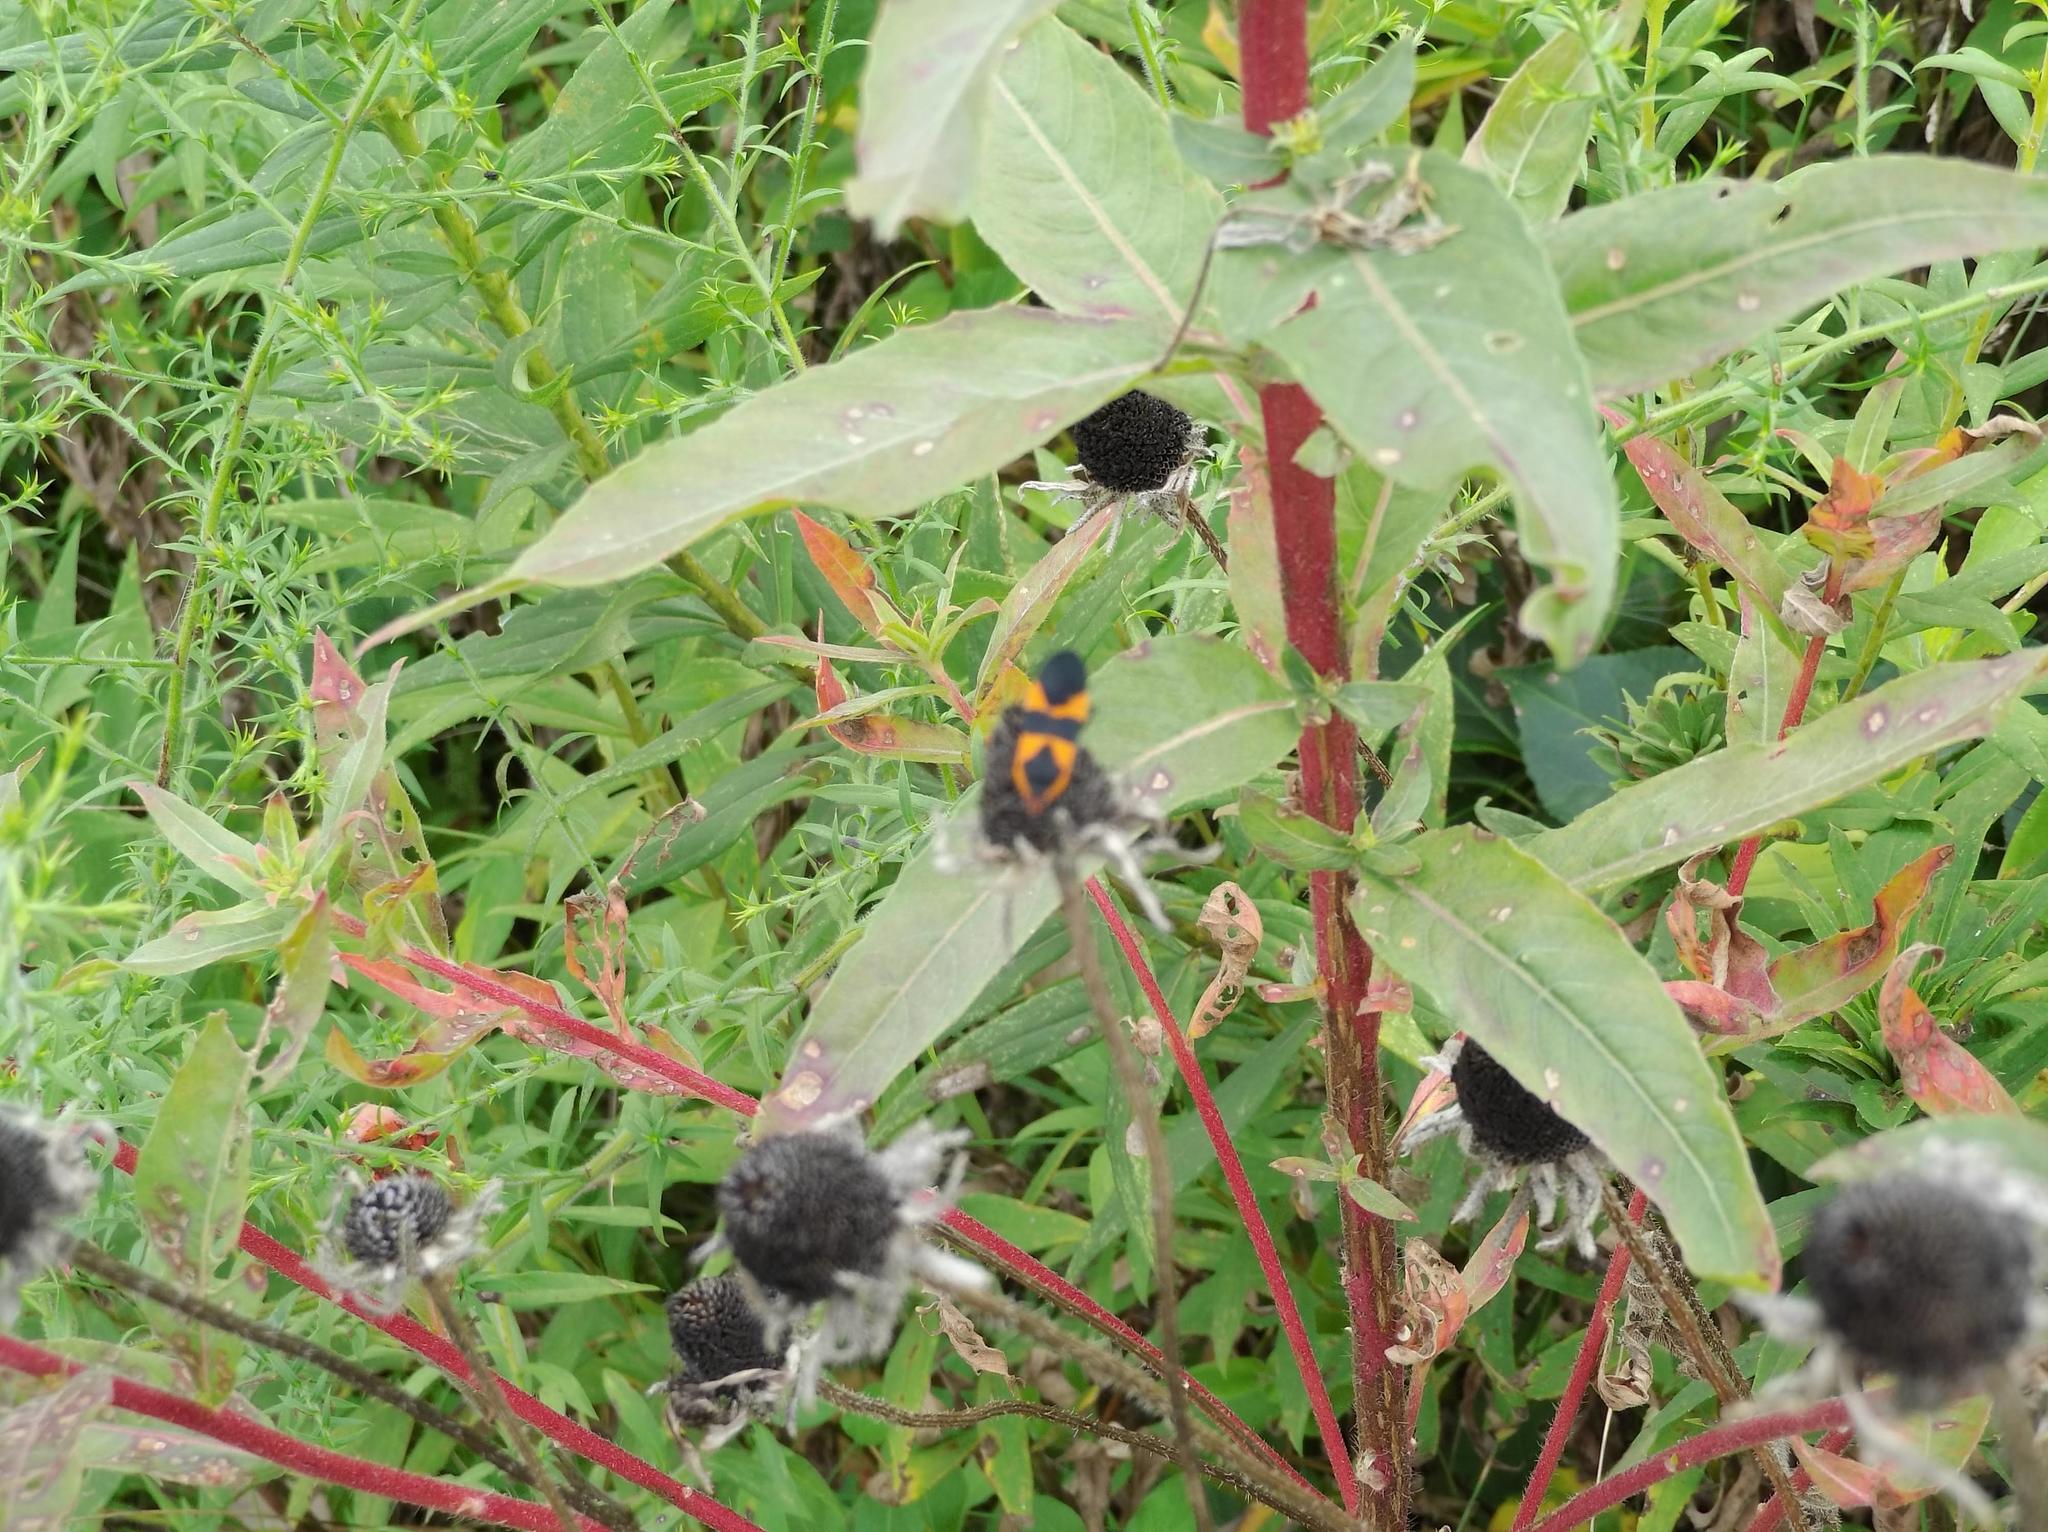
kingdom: Animalia
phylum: Arthropoda
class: Insecta
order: Hemiptera
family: Lygaeidae
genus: Oncopeltus
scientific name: Oncopeltus fasciatus
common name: Large milkweed bug
